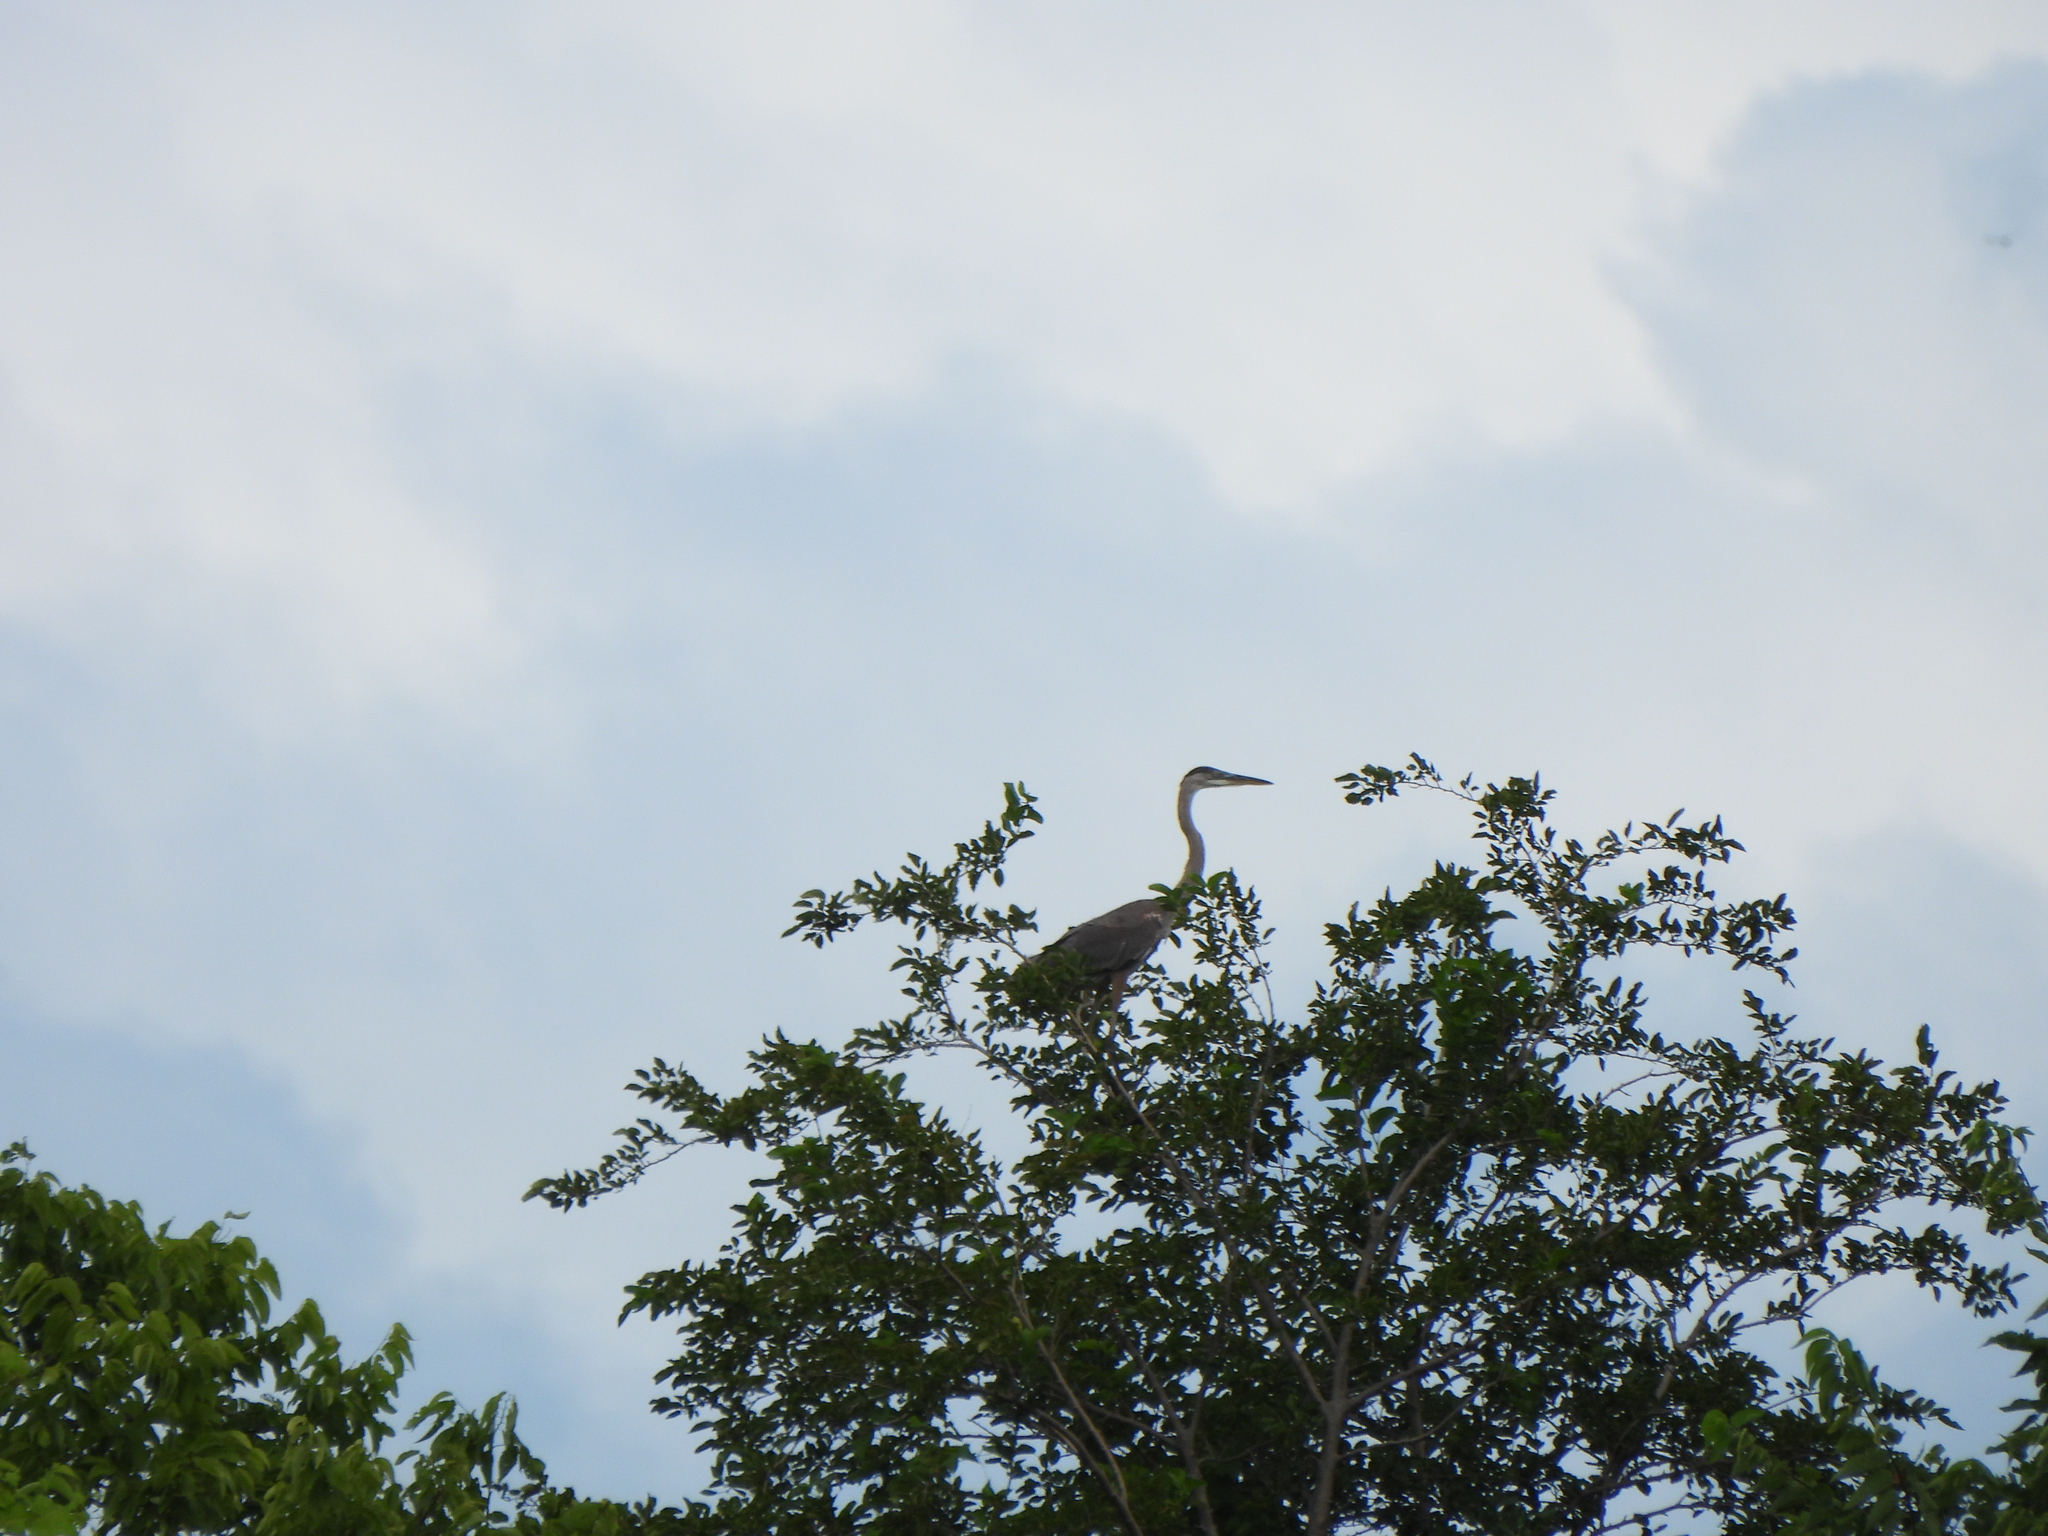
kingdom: Animalia
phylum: Chordata
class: Aves
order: Pelecaniformes
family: Ardeidae
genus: Ardea
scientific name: Ardea herodias
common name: Great blue heron
